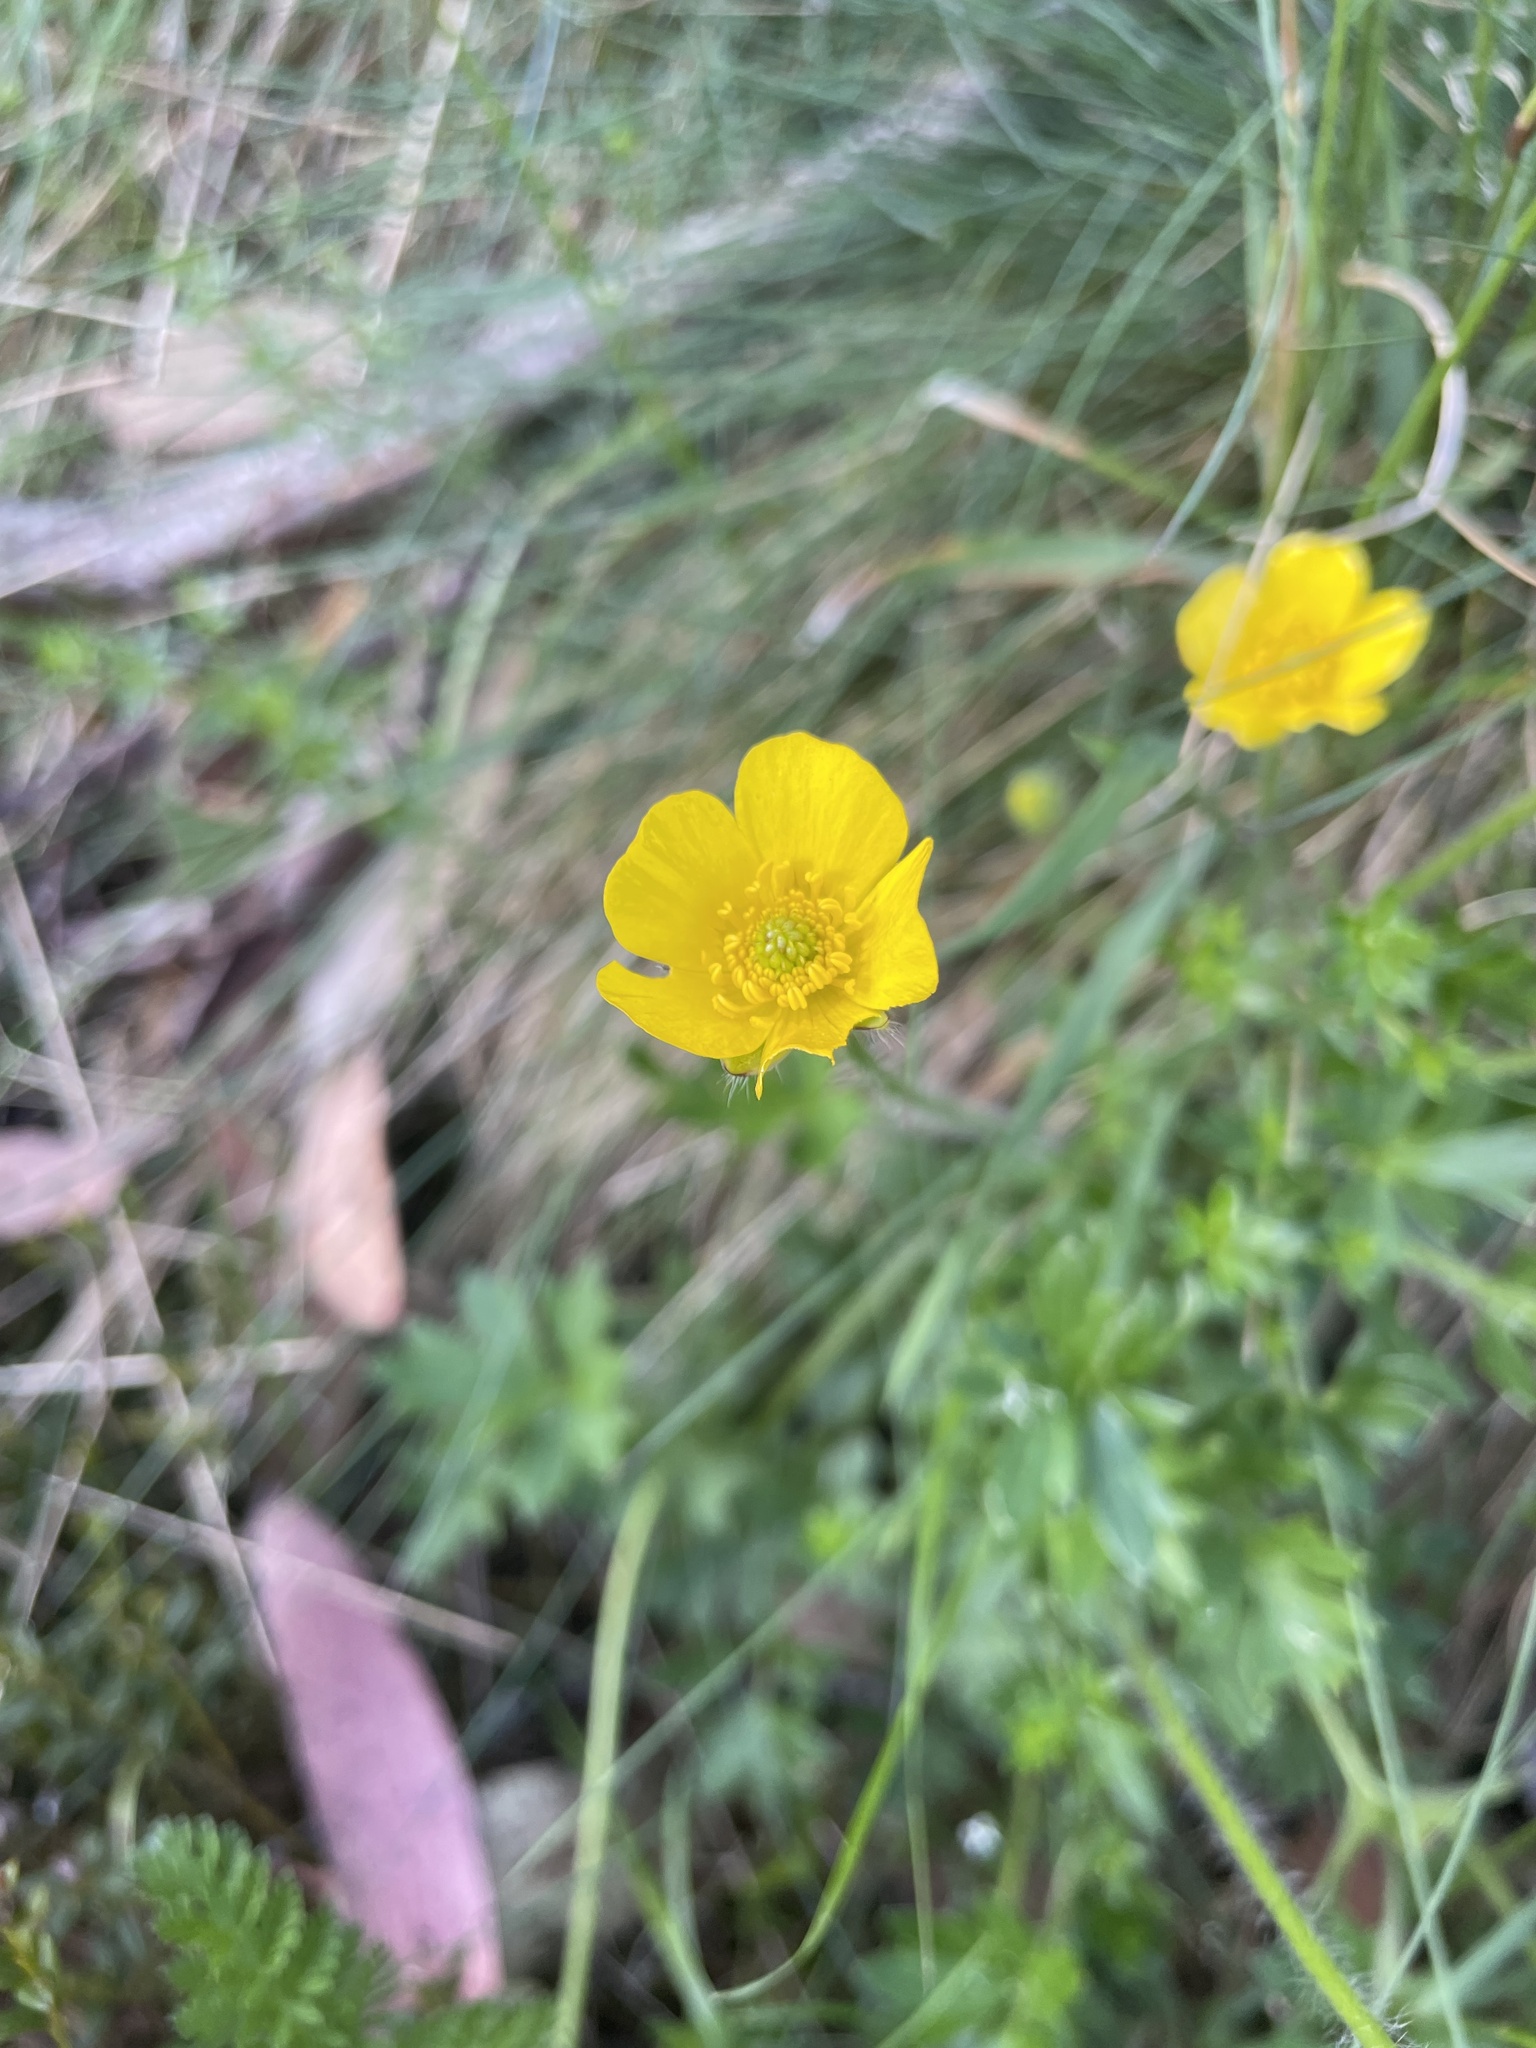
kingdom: Plantae
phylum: Tracheophyta
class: Magnoliopsida
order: Ranunculales
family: Ranunculaceae
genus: Ranunculus
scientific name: Ranunculus lappaceus
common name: Australian buttercup
